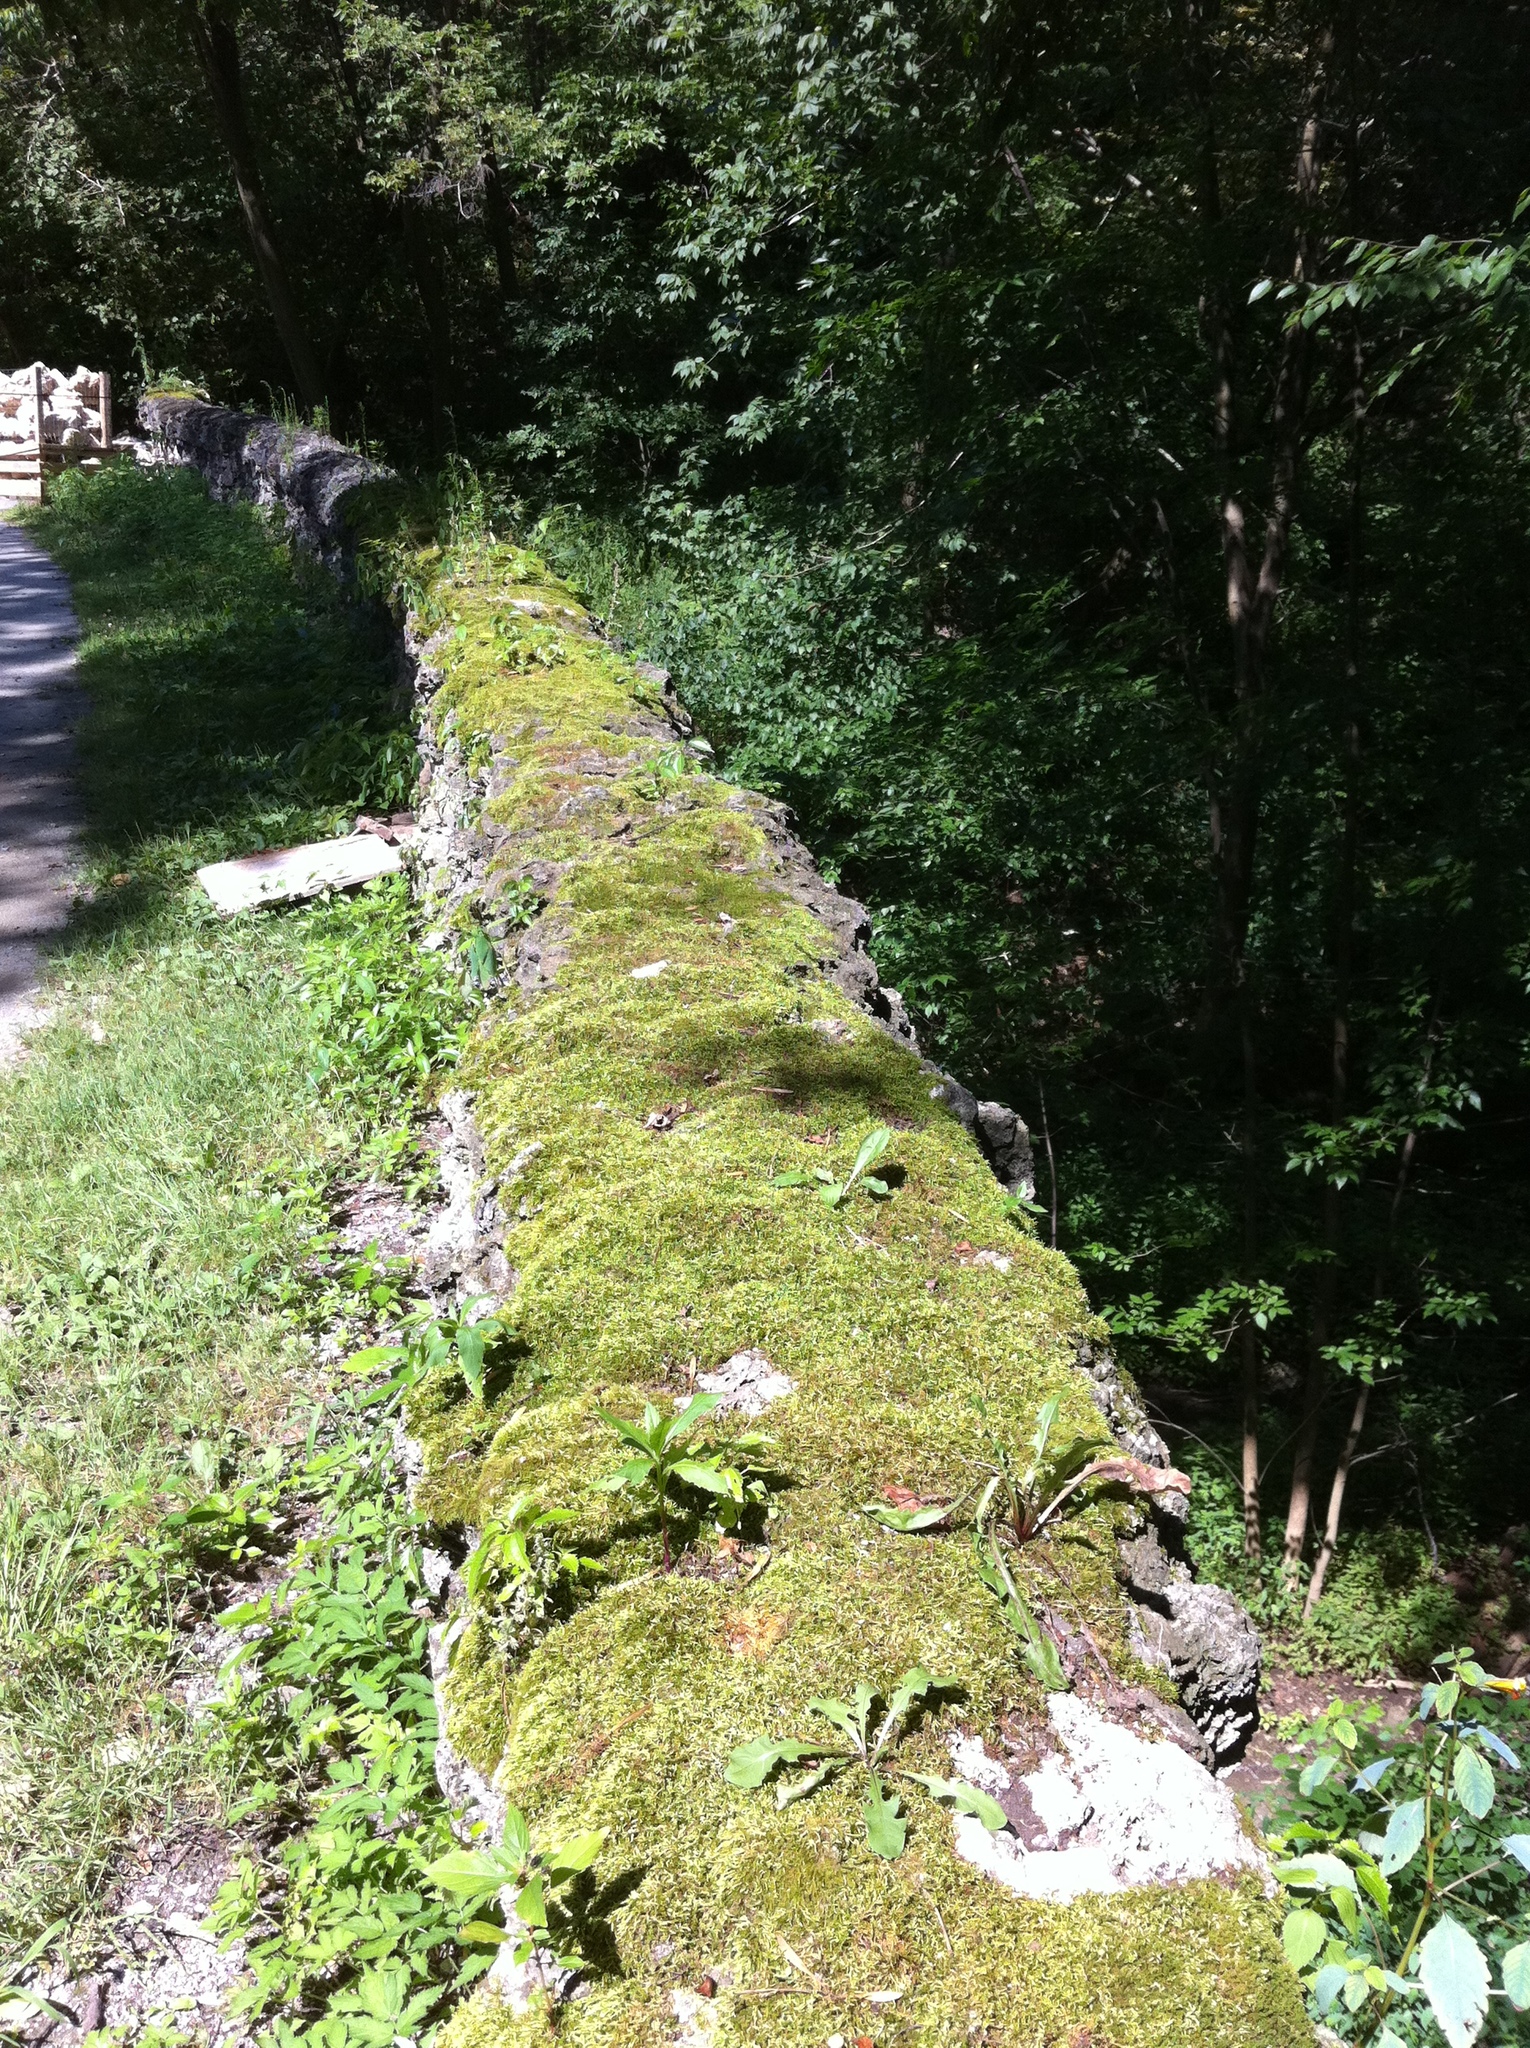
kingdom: Plantae
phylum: Tracheophyta
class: Magnoliopsida
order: Ericales
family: Balsaminaceae
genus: Impatiens
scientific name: Impatiens capensis
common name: Orange balsam
